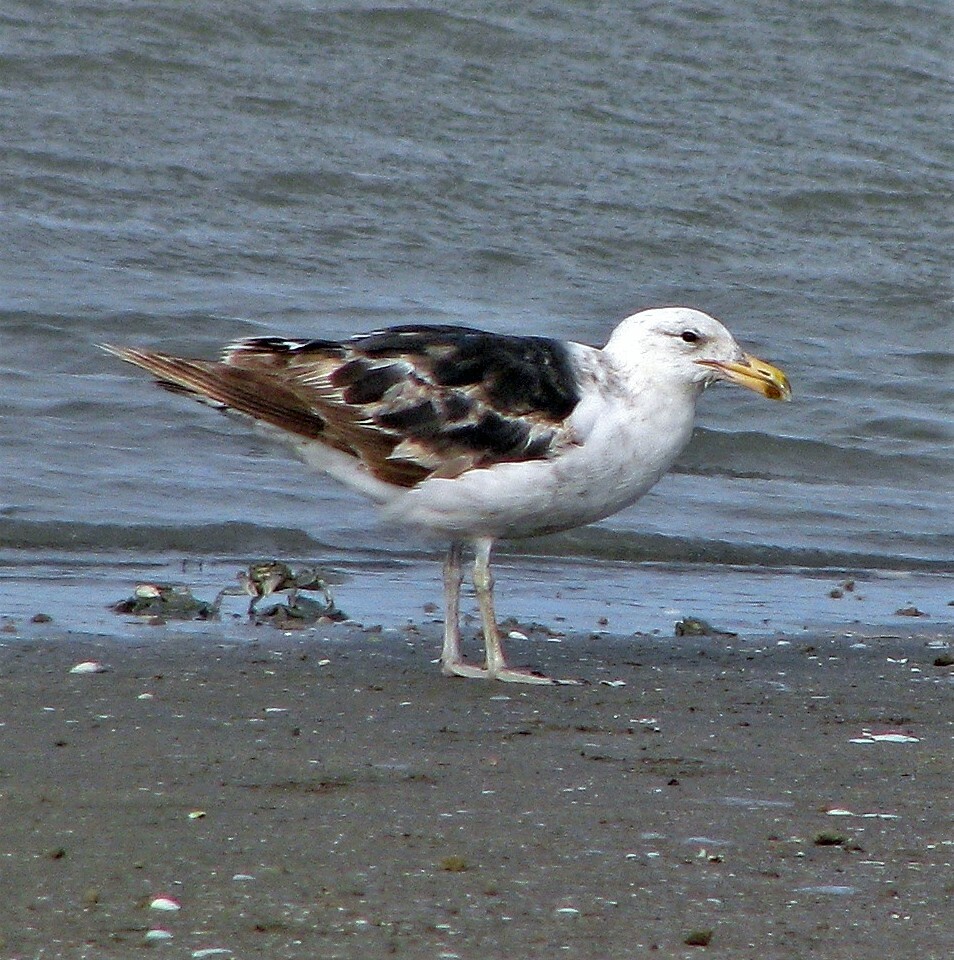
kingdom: Animalia
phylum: Chordata
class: Aves
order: Charadriiformes
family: Laridae
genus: Larus
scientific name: Larus dominicanus
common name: Kelp gull
